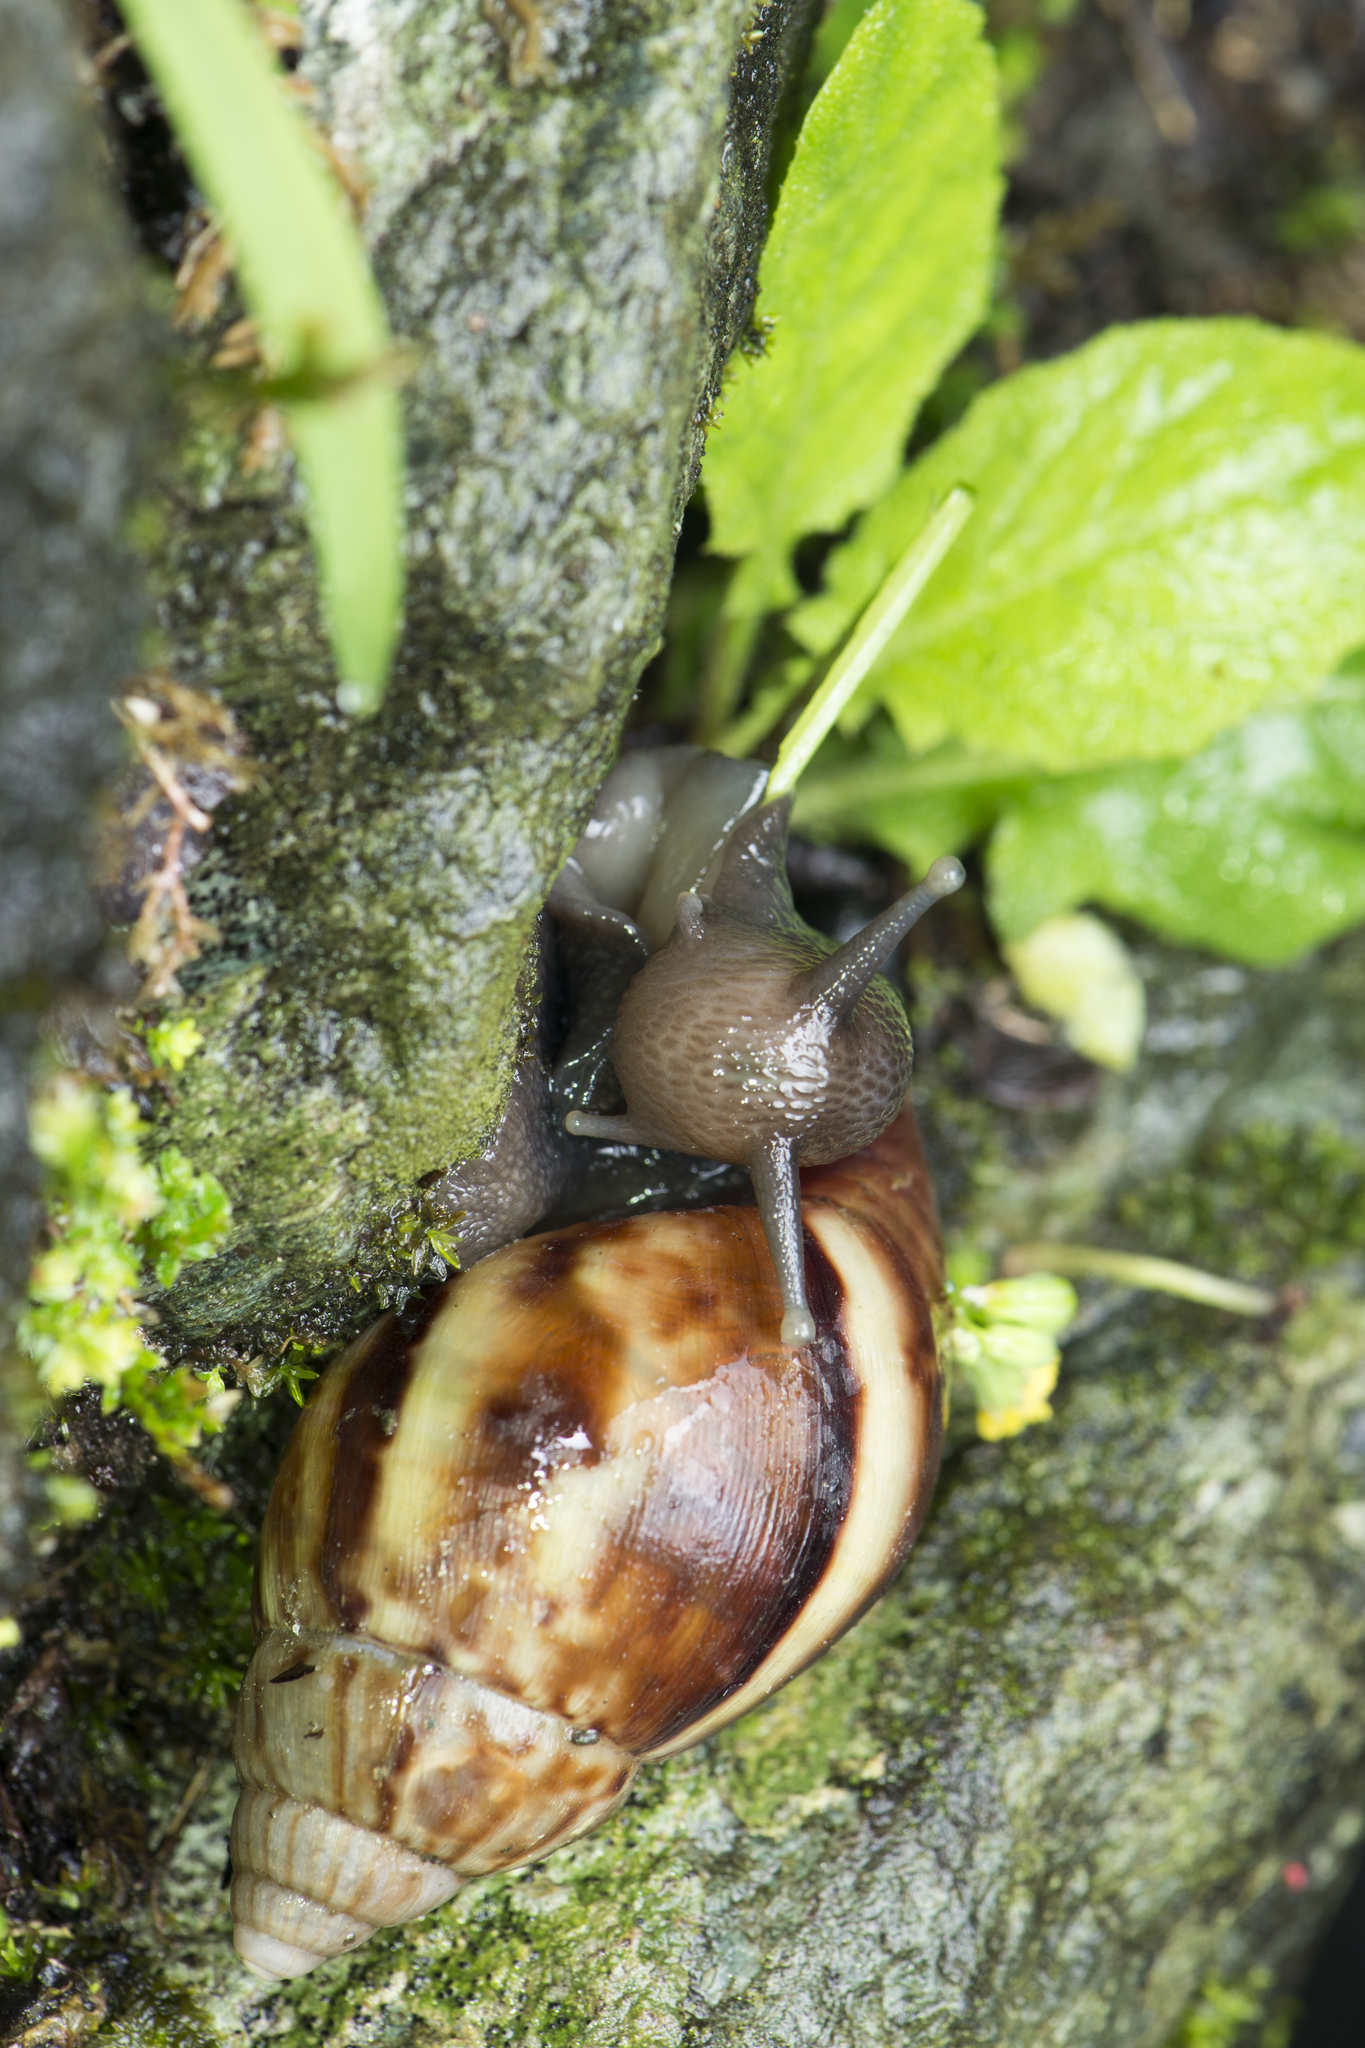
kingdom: Animalia
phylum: Mollusca
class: Gastropoda
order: Stylommatophora
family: Achatinidae
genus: Lissachatina
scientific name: Lissachatina fulica
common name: Giant african snail
